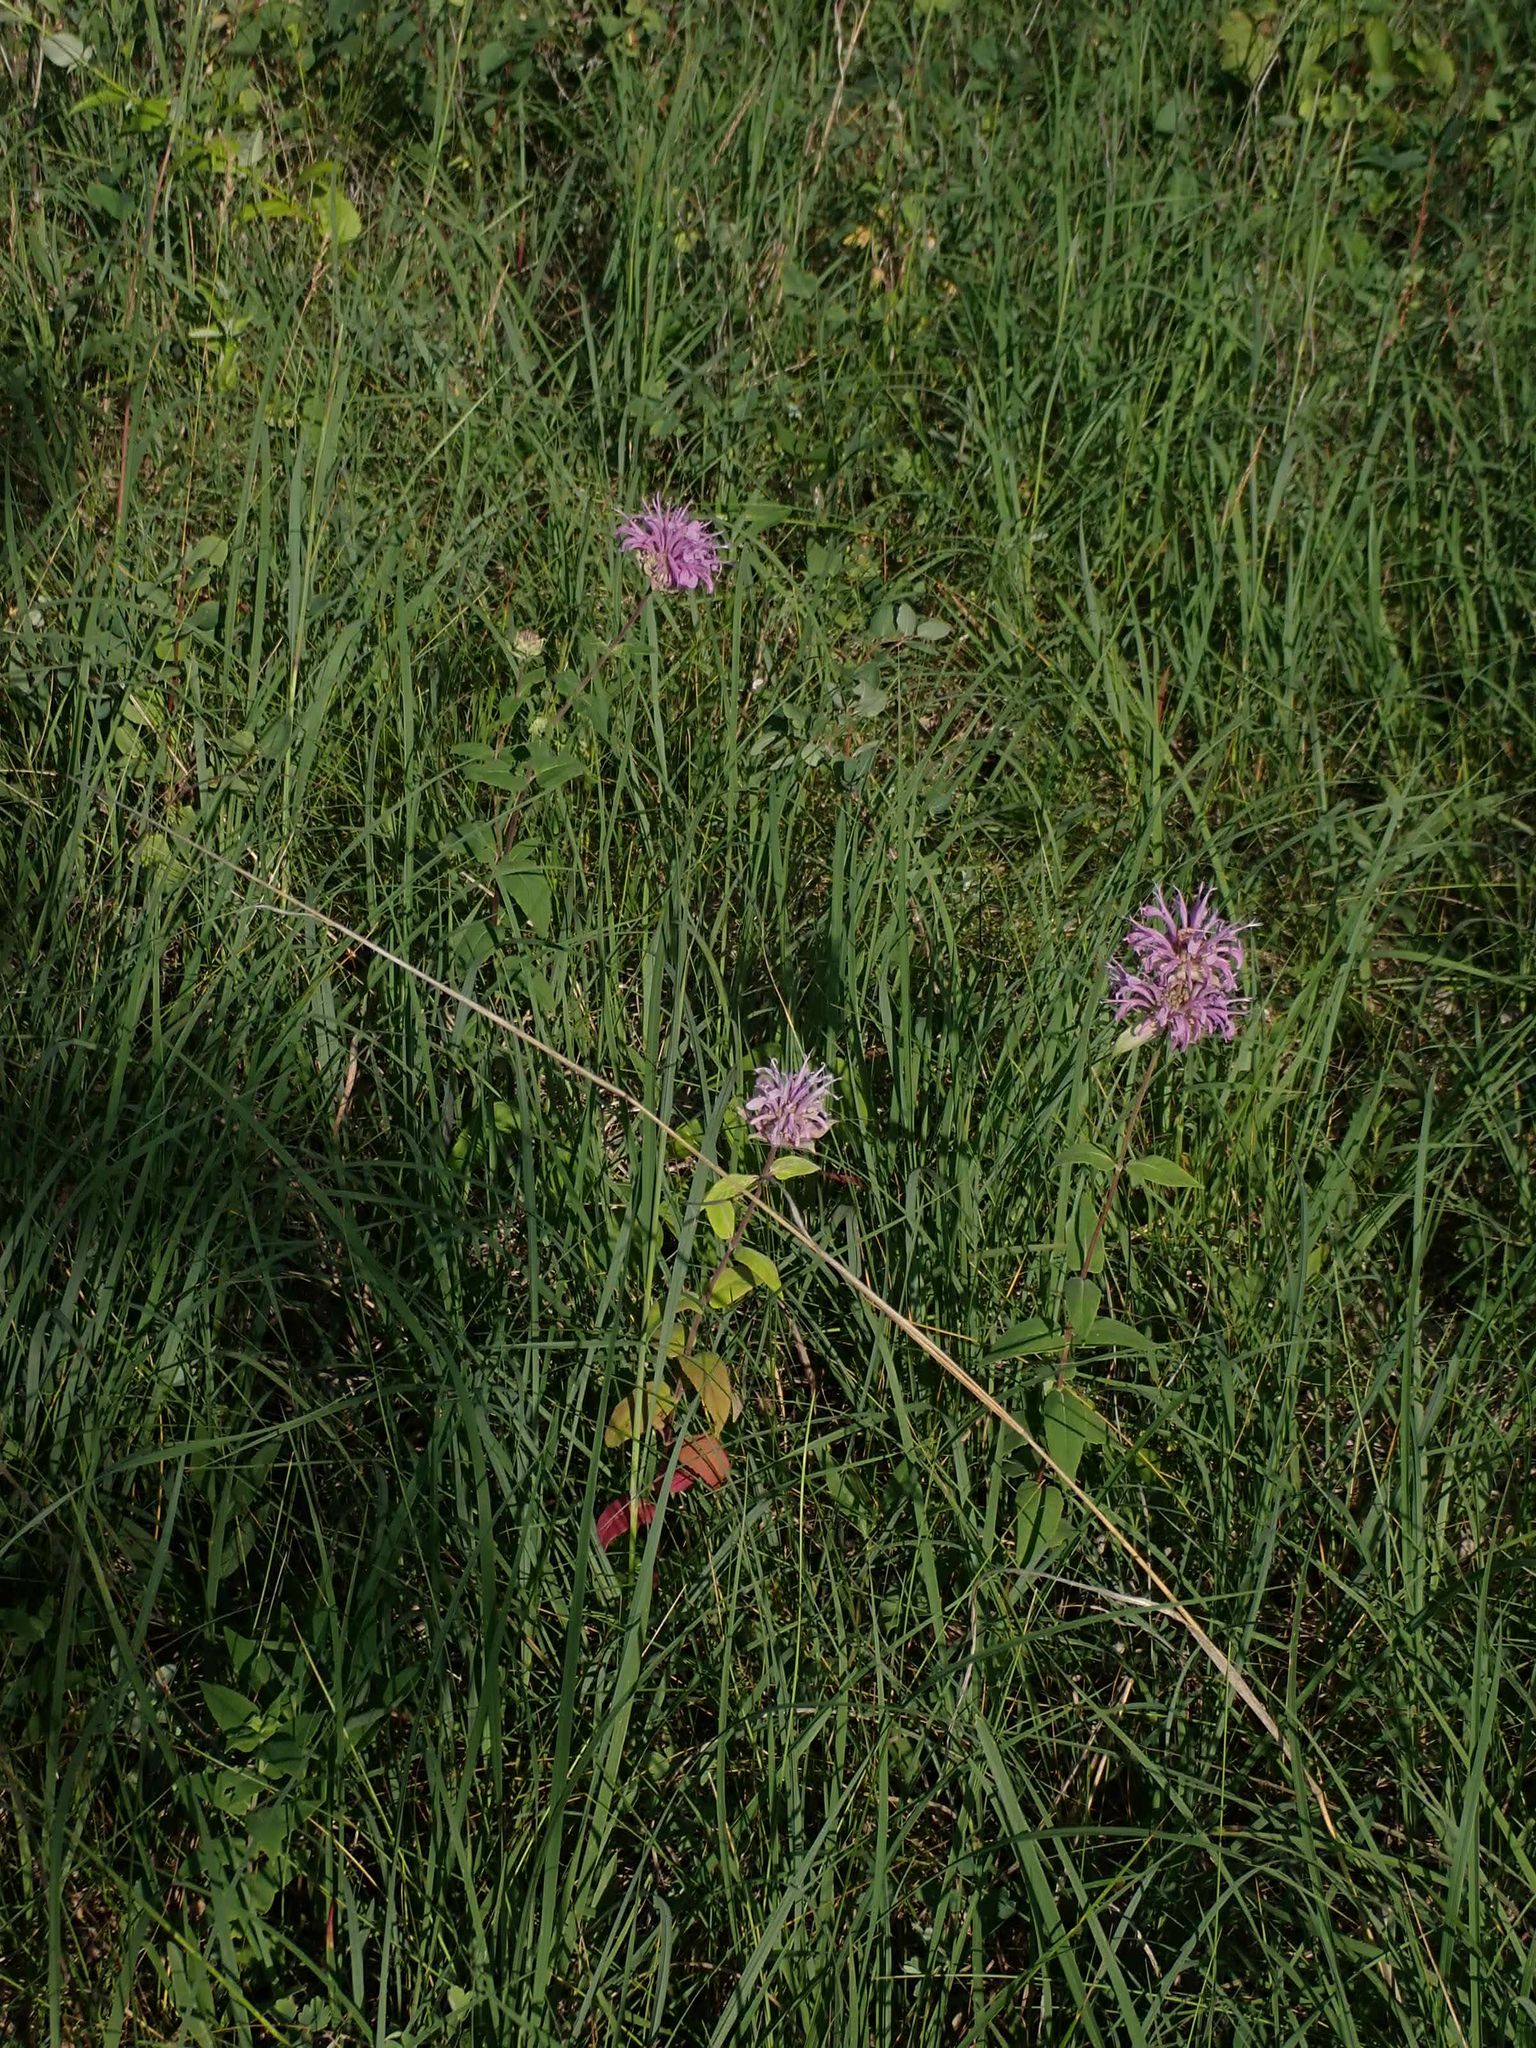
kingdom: Plantae
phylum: Tracheophyta
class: Magnoliopsida
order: Lamiales
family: Lamiaceae
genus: Monarda
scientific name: Monarda fistulosa
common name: Purple beebalm
